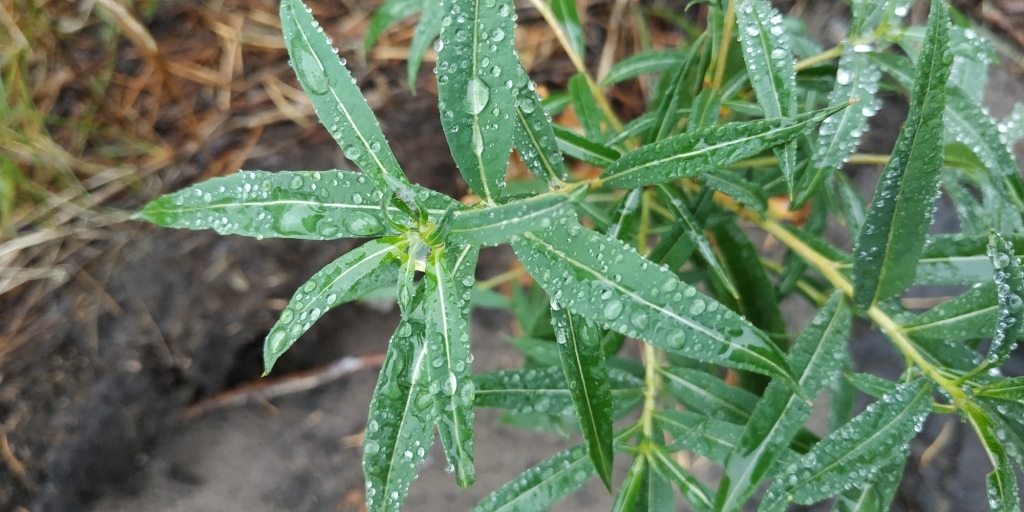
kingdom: Plantae
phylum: Tracheophyta
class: Magnoliopsida
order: Myrtales
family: Onagraceae
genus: Chamaenerion
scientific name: Chamaenerion angustifolium
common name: Fireweed
